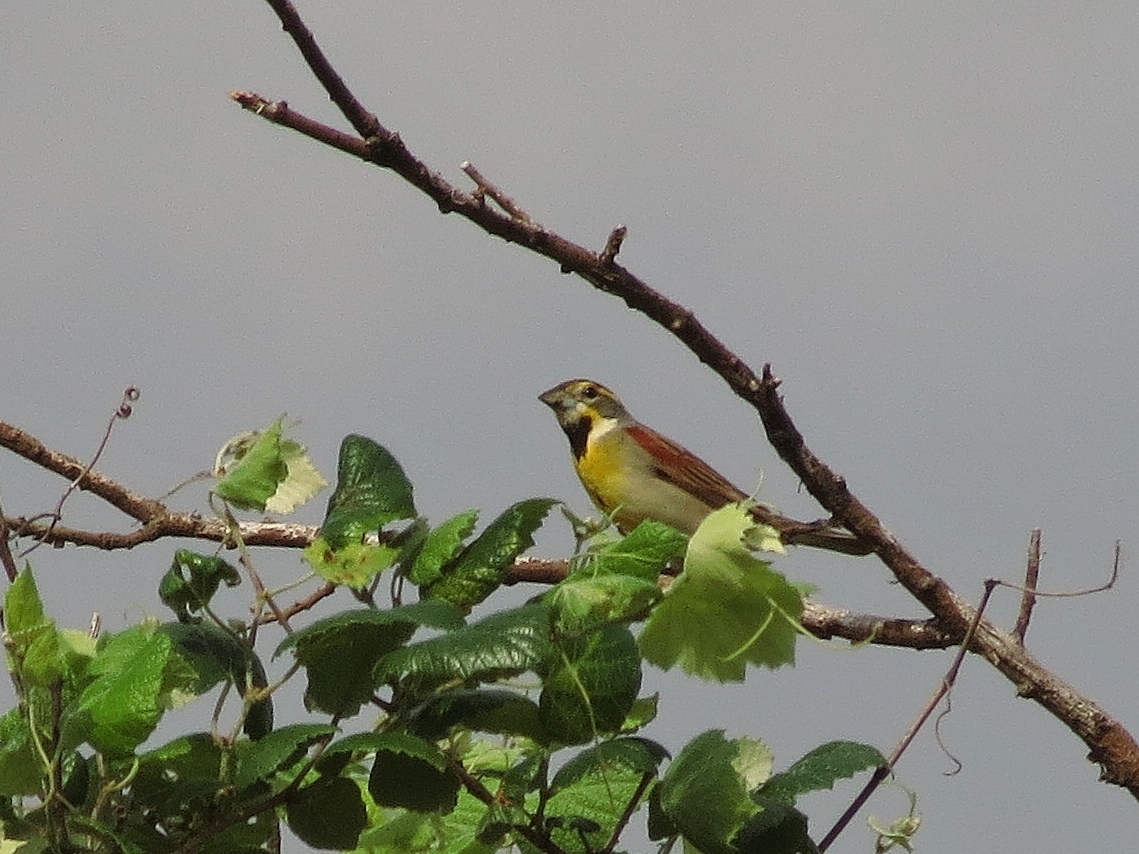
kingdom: Animalia
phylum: Chordata
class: Aves
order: Passeriformes
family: Cardinalidae
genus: Spiza
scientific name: Spiza americana
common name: Dickcissel
